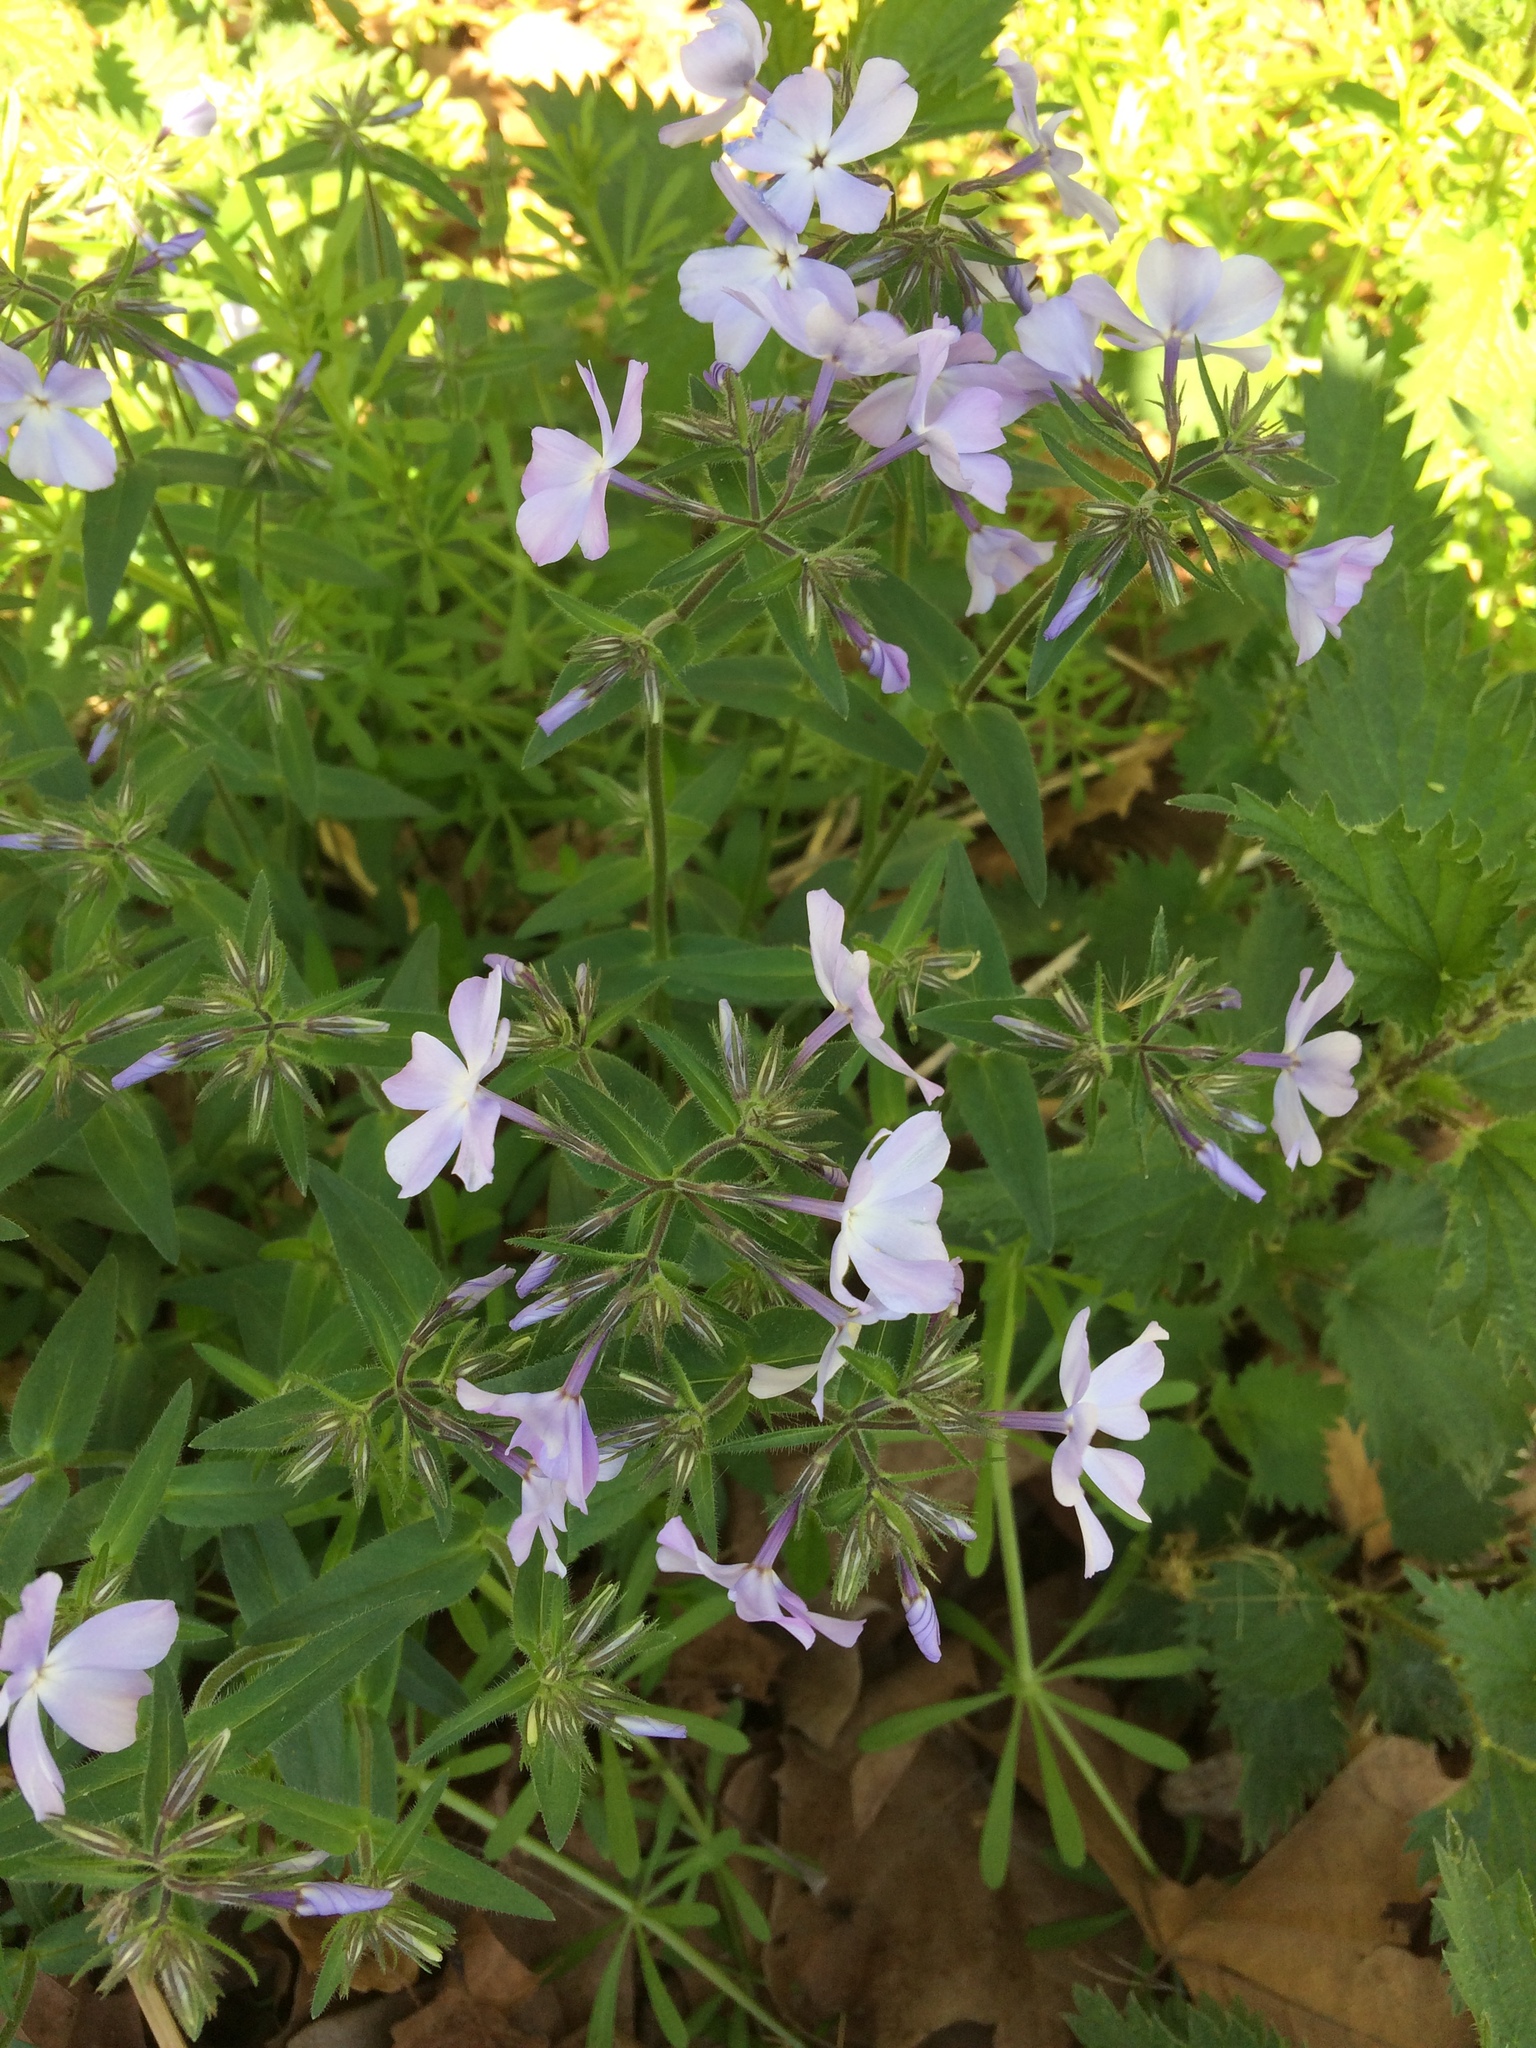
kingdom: Plantae
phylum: Tracheophyta
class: Magnoliopsida
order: Ericales
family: Polemoniaceae
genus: Phlox
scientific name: Phlox divaricata
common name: Blue phlox
